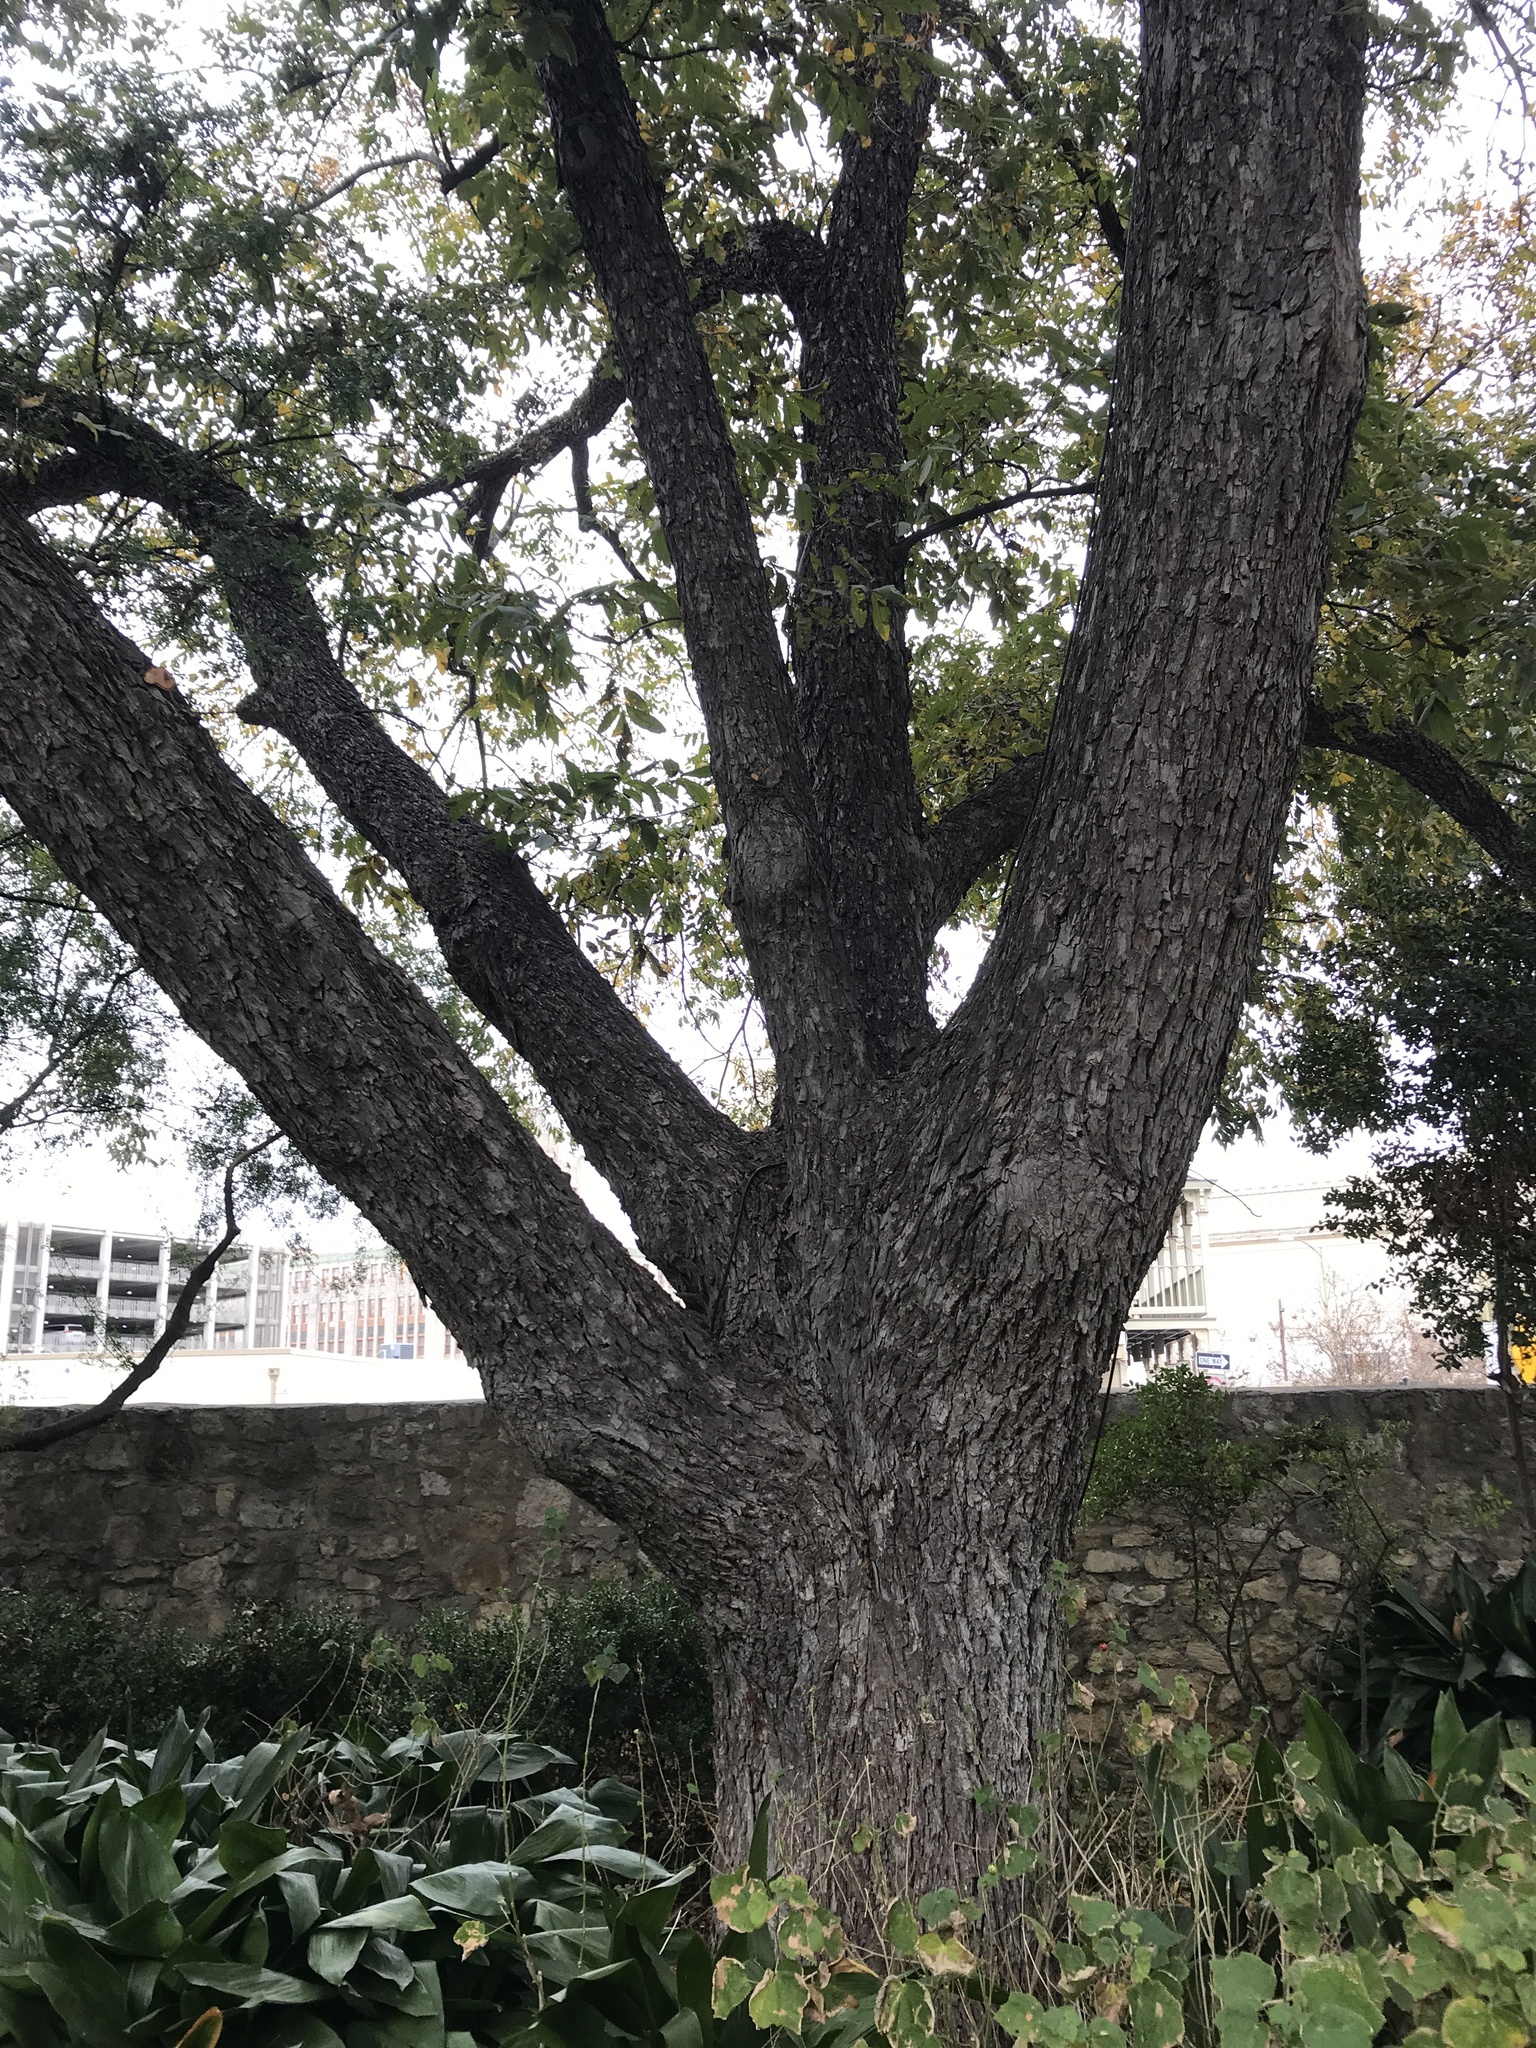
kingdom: Plantae
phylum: Tracheophyta
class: Magnoliopsida
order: Fagales
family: Juglandaceae
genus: Carya
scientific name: Carya illinoinensis
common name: Pecan
